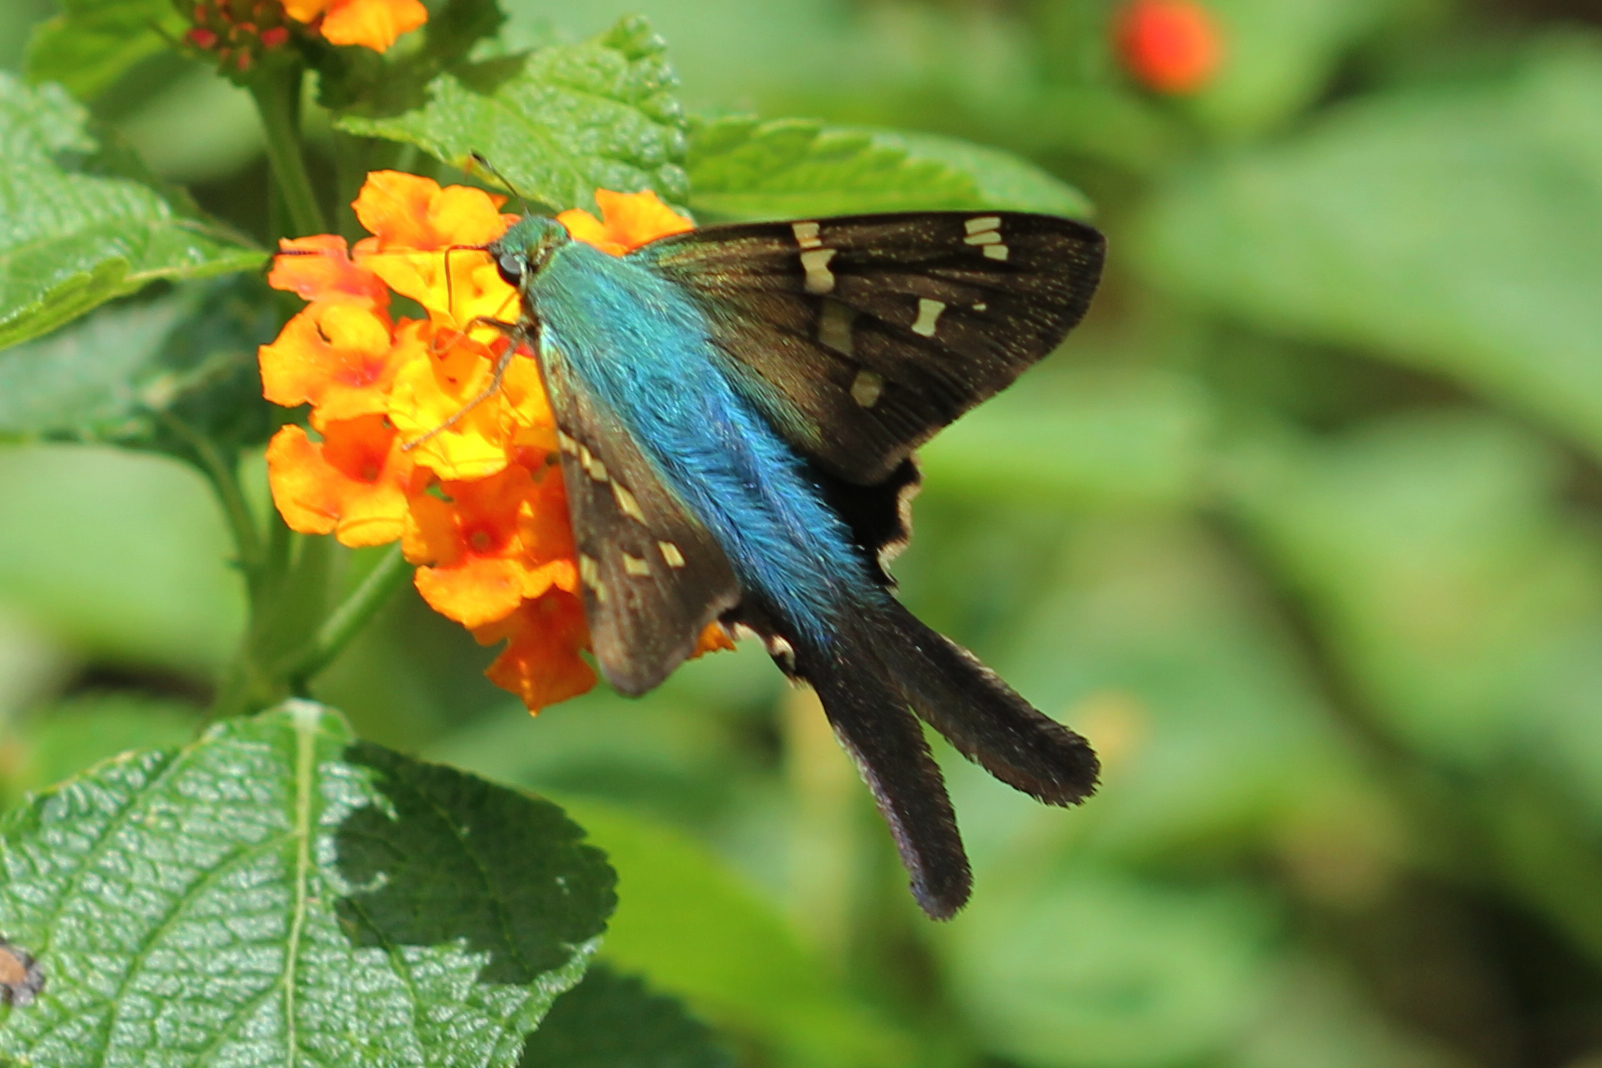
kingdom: Animalia
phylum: Arthropoda
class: Insecta
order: Lepidoptera
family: Hesperiidae
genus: Urbanus
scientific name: Urbanus evona
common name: Turquoise longtail
